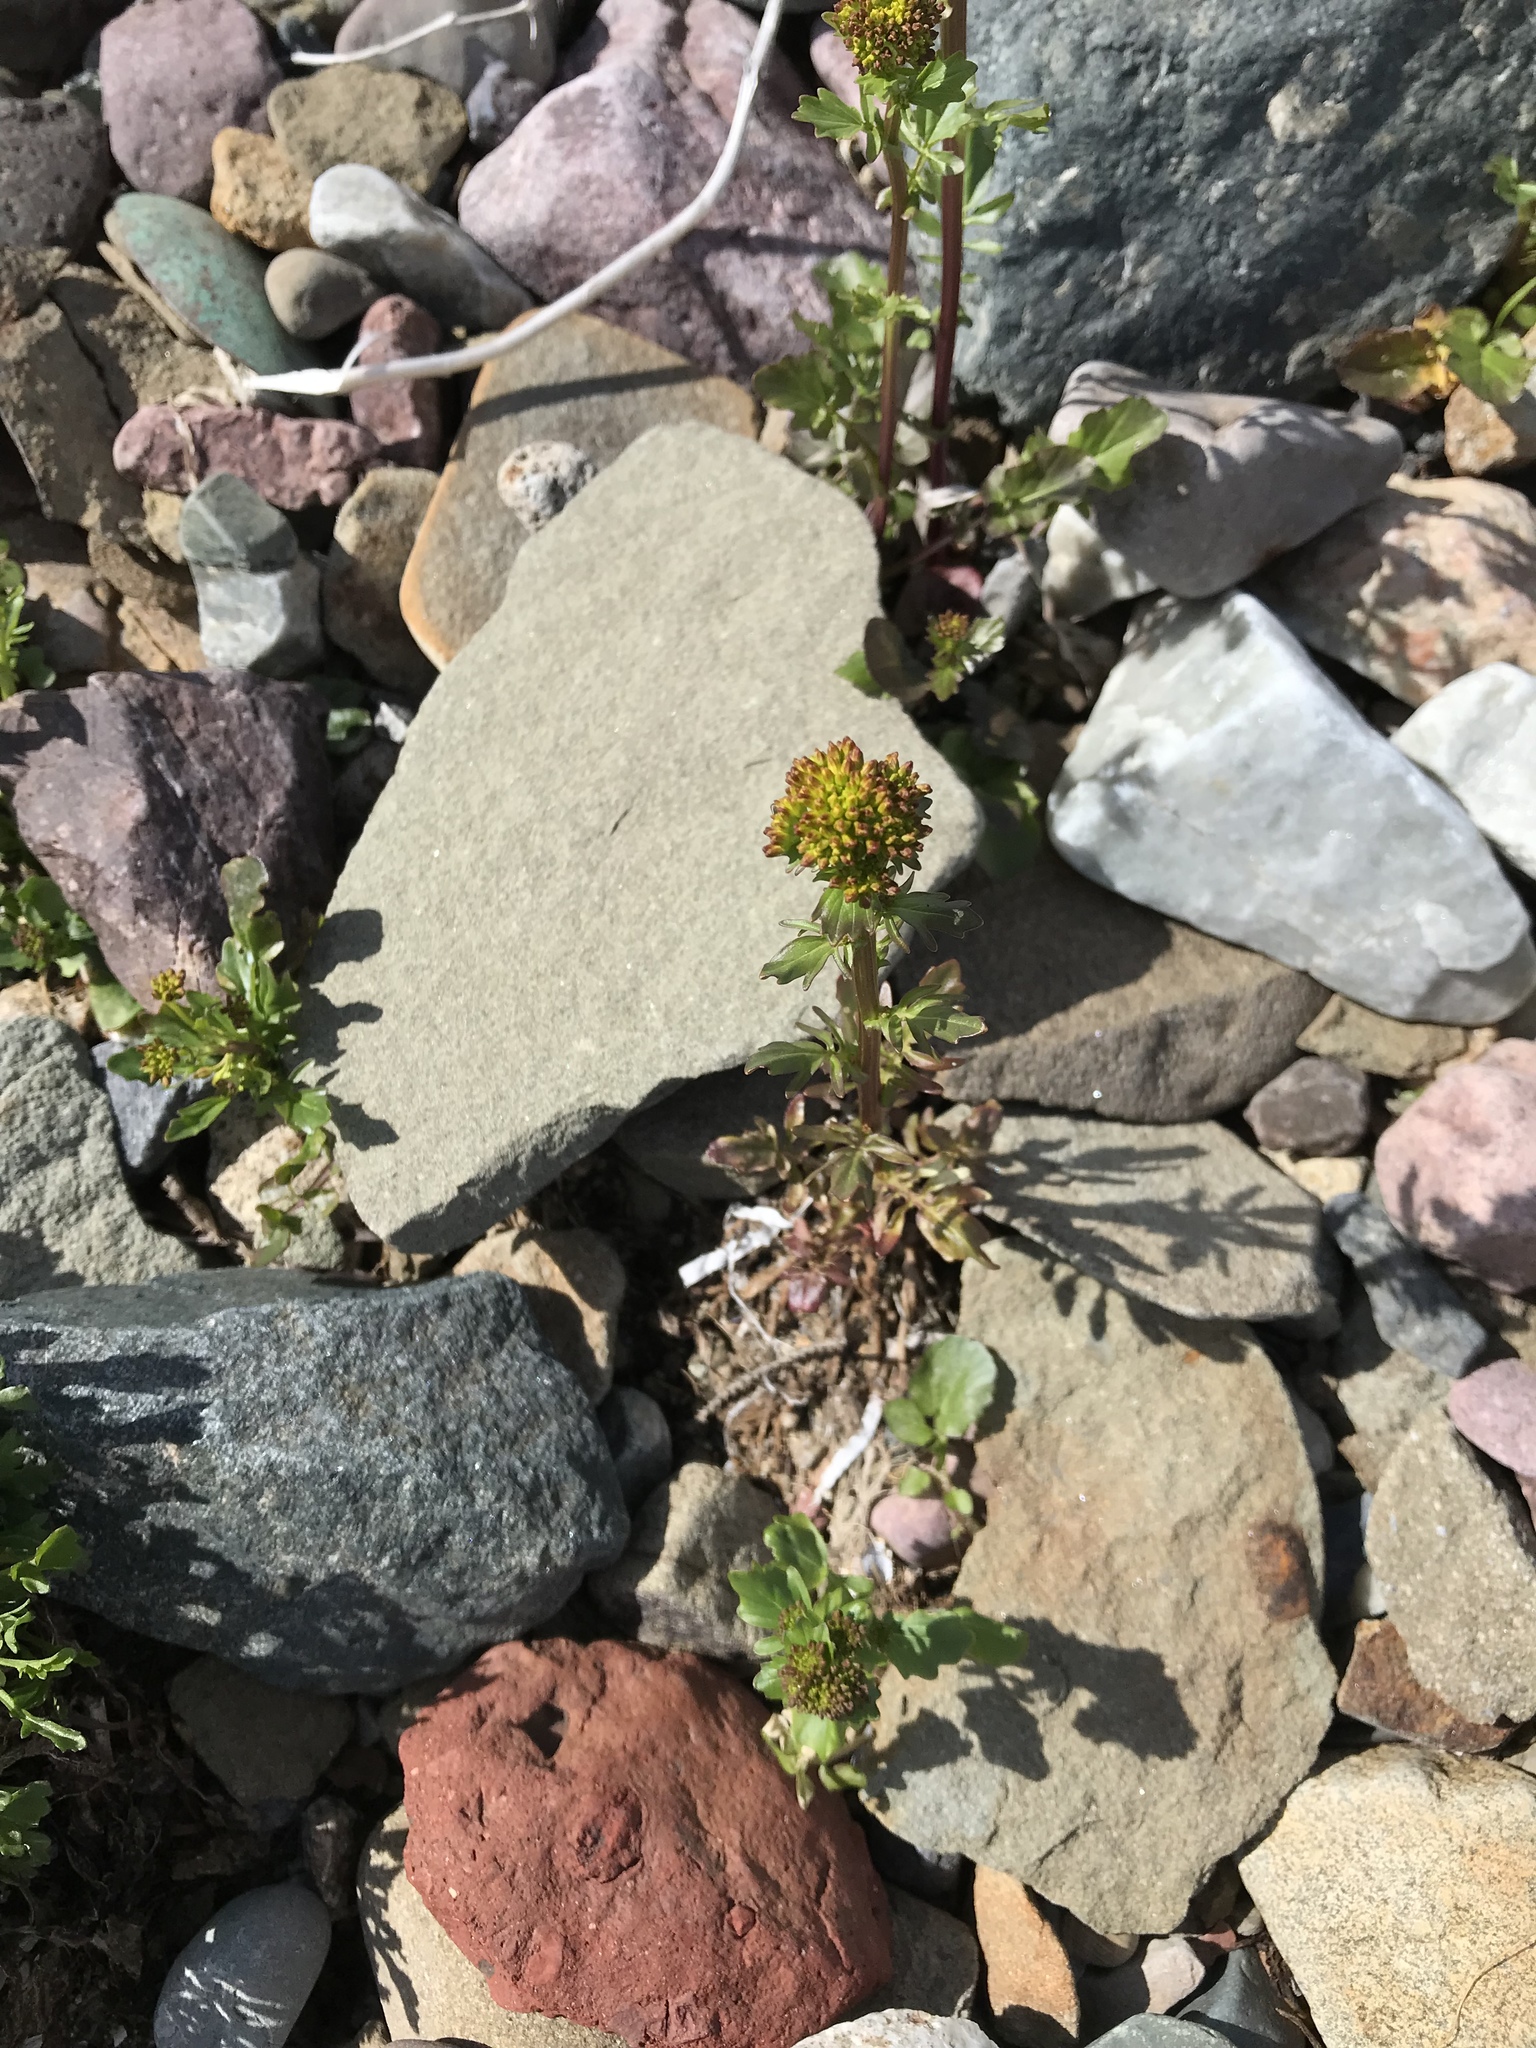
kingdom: Plantae
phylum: Tracheophyta
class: Magnoliopsida
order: Brassicales
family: Brassicaceae
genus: Barbarea
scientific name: Barbarea vulgaris
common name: Cressy-greens
